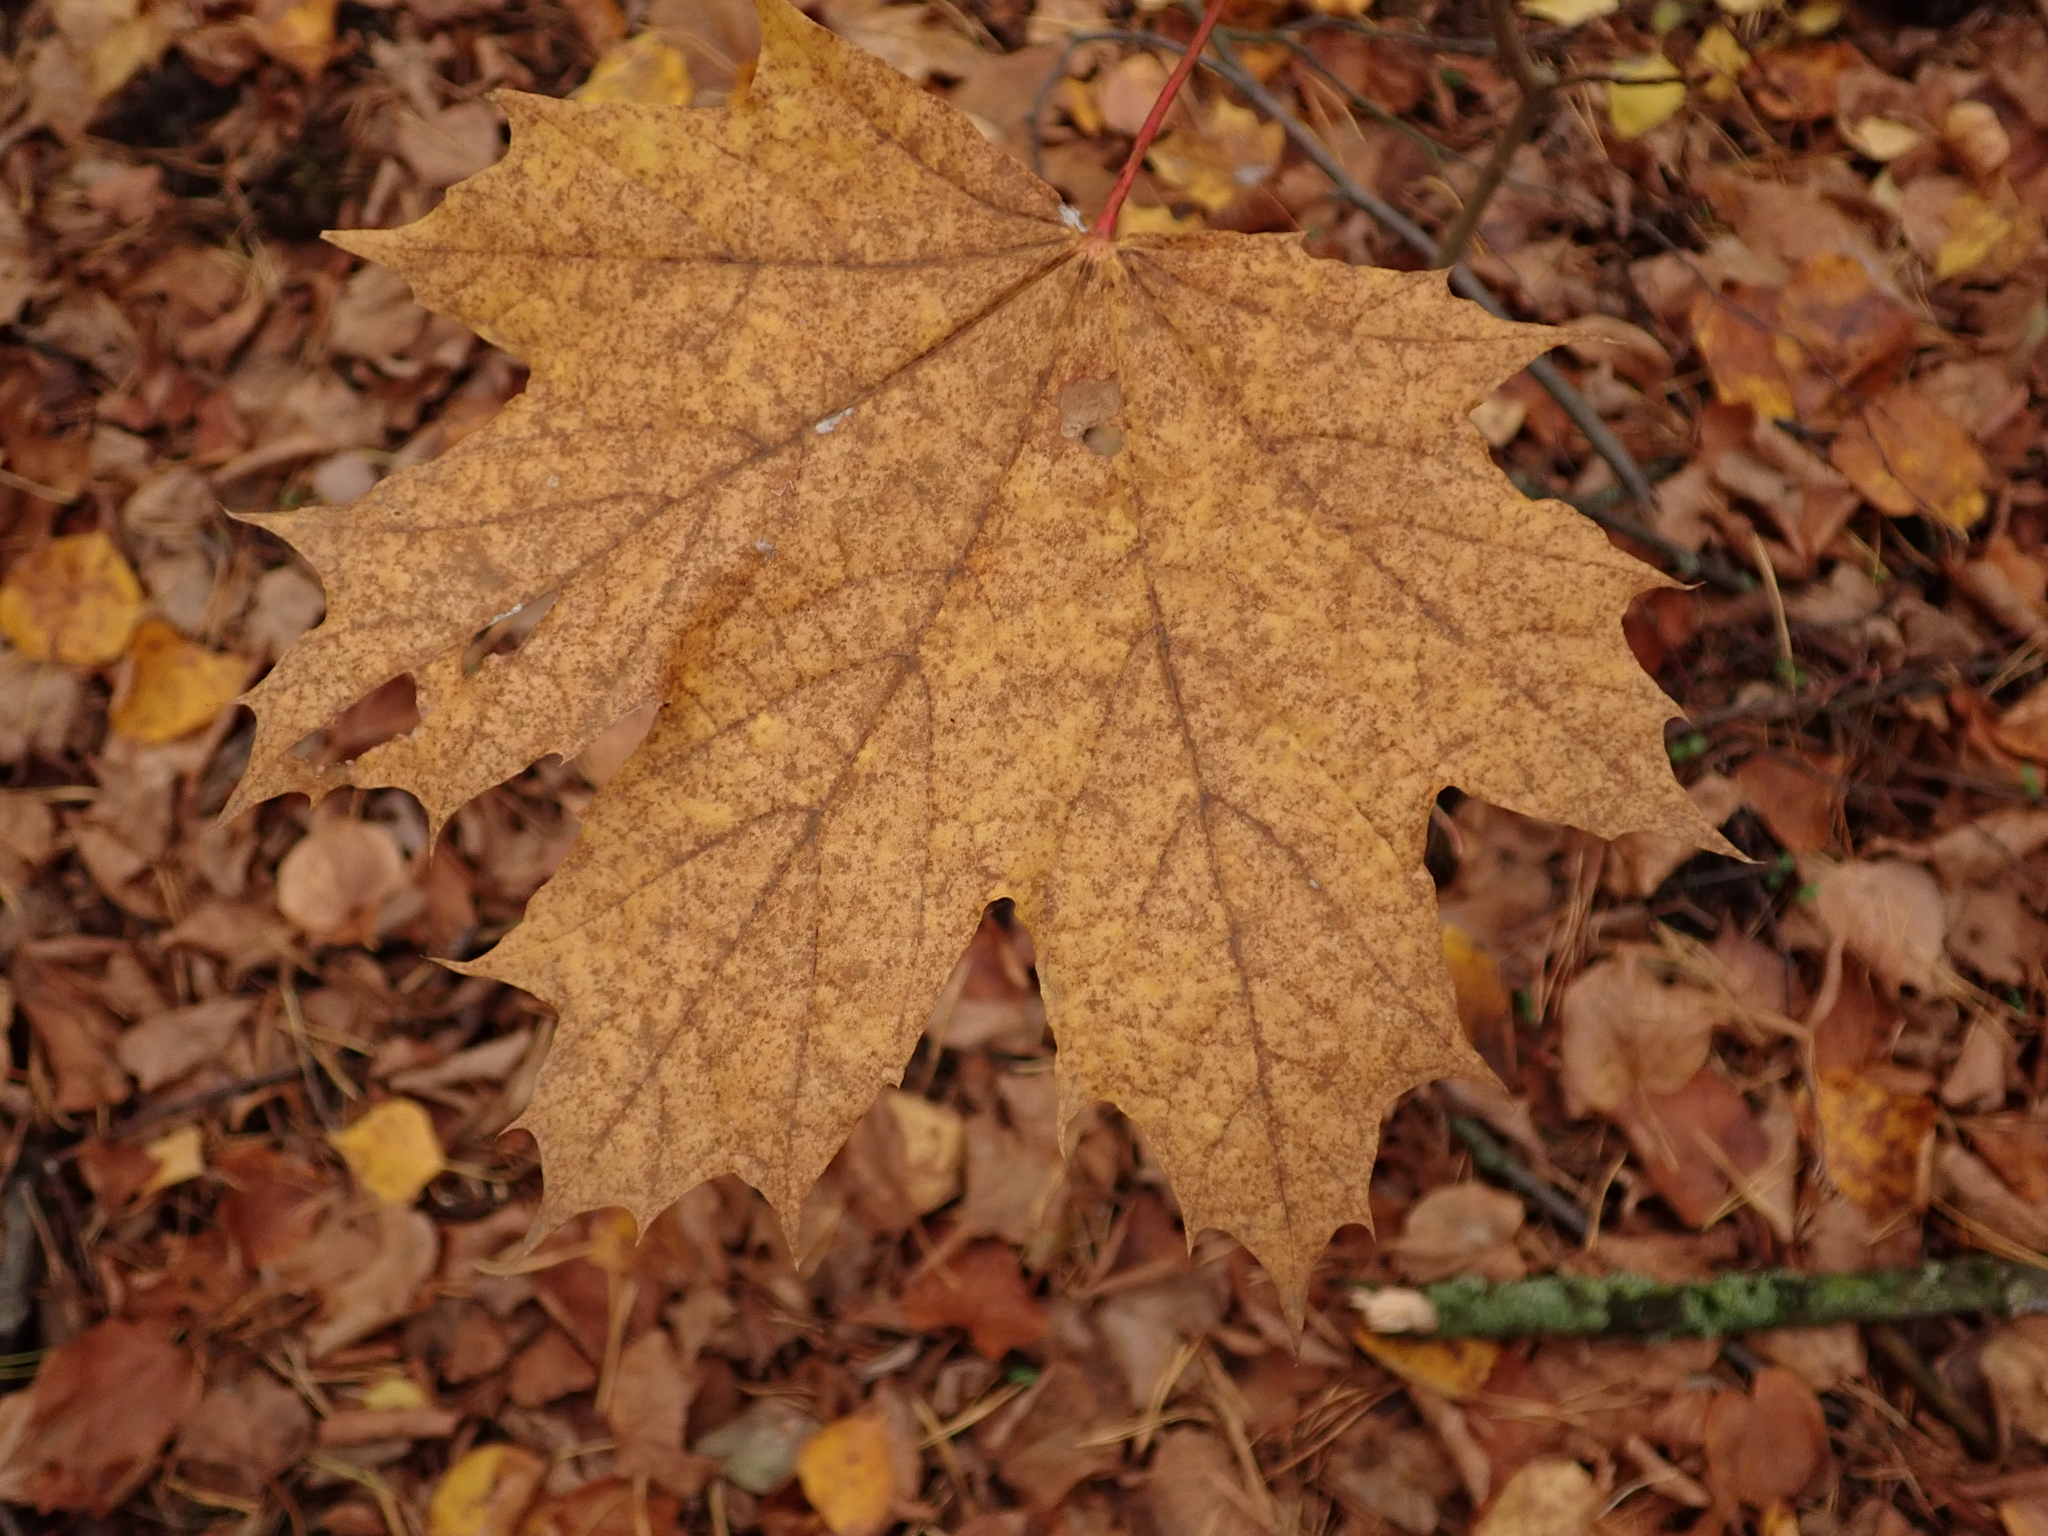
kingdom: Plantae
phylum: Tracheophyta
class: Magnoliopsida
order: Sapindales
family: Sapindaceae
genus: Acer
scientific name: Acer platanoides
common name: Norway maple
